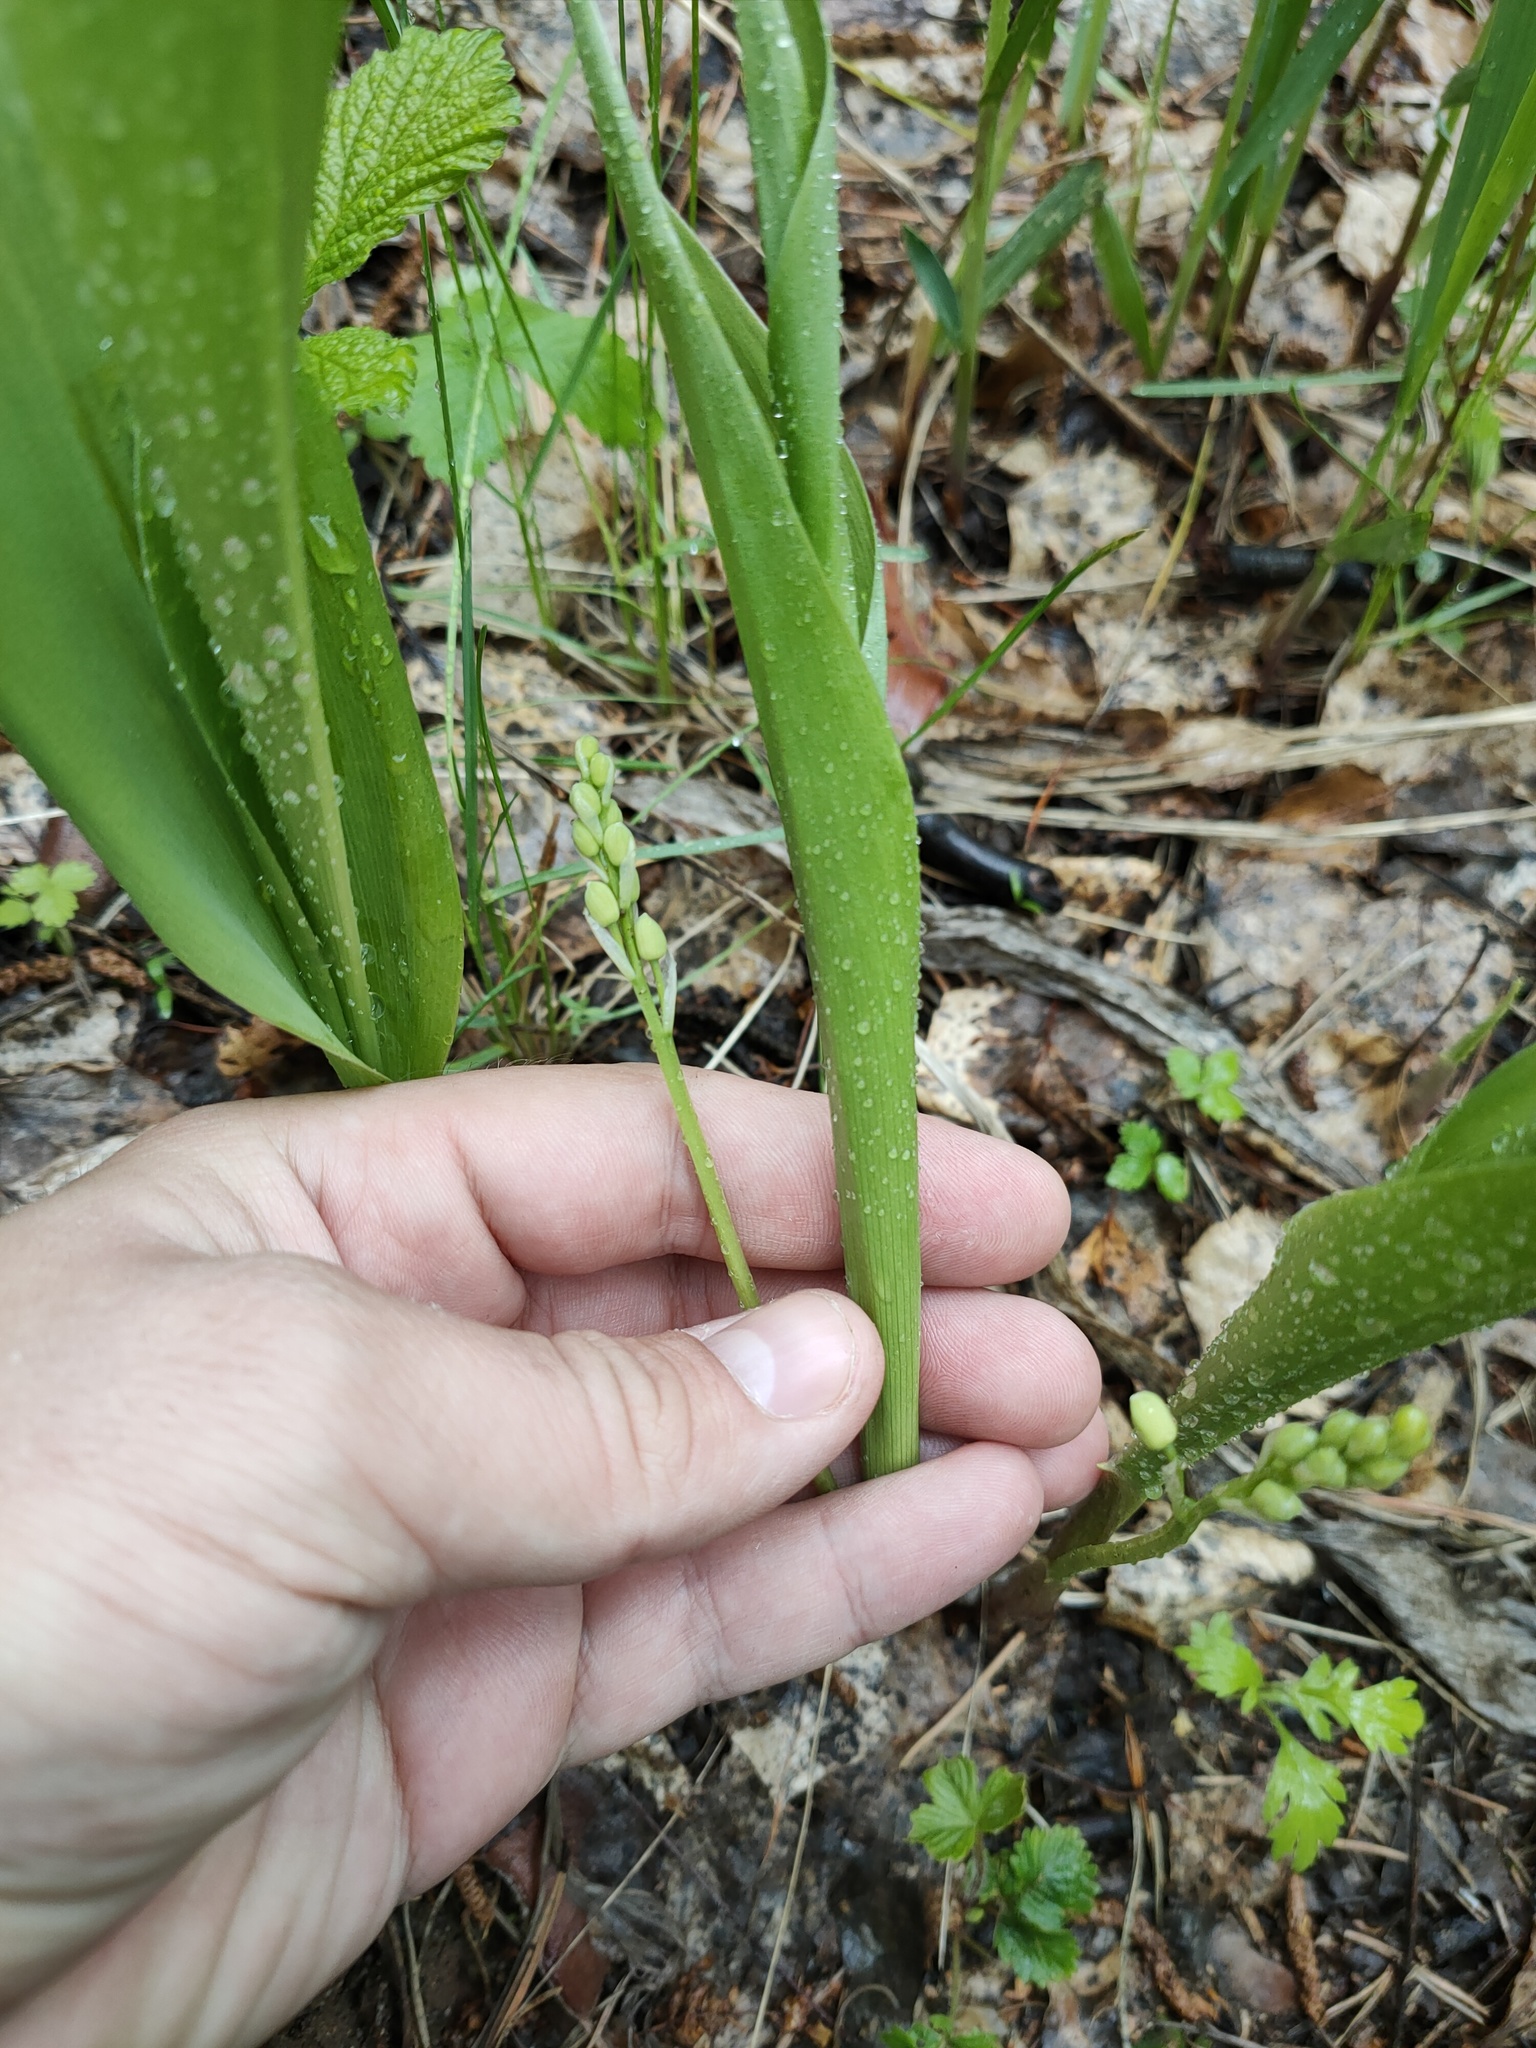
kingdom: Plantae
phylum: Tracheophyta
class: Liliopsida
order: Asparagales
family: Asparagaceae
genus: Convallaria
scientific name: Convallaria majalis
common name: Lily-of-the-valley
